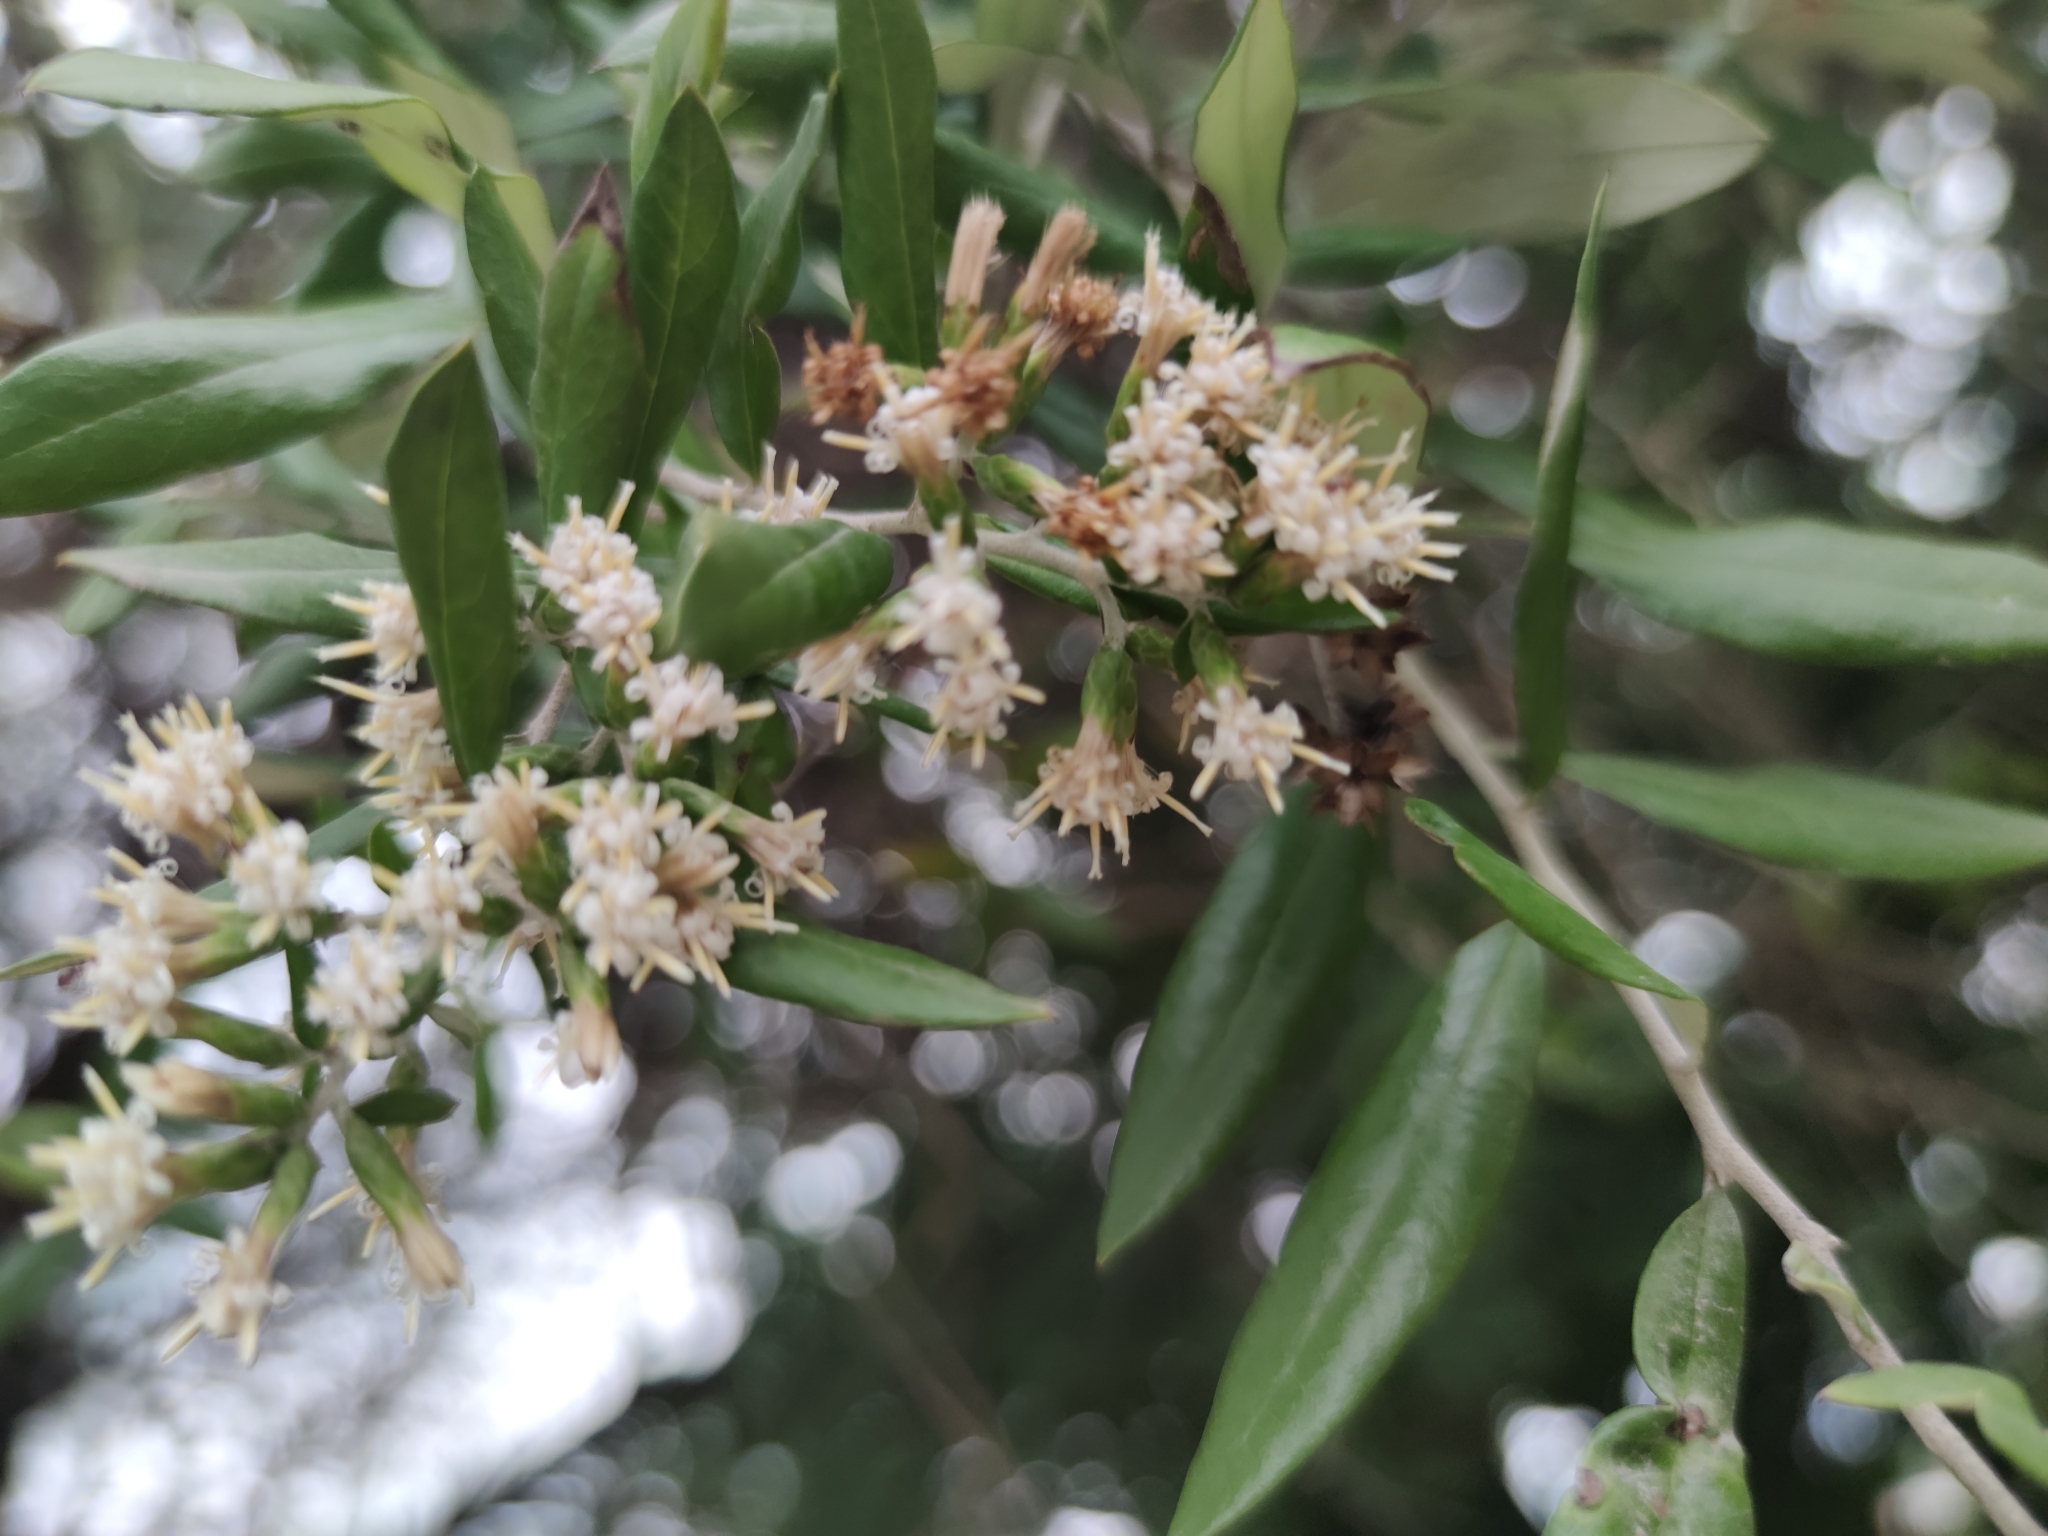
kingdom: Plantae
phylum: Tracheophyta
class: Magnoliopsida
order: Asterales
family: Asteraceae
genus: Nahuatlea
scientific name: Nahuatlea hypoleuca
